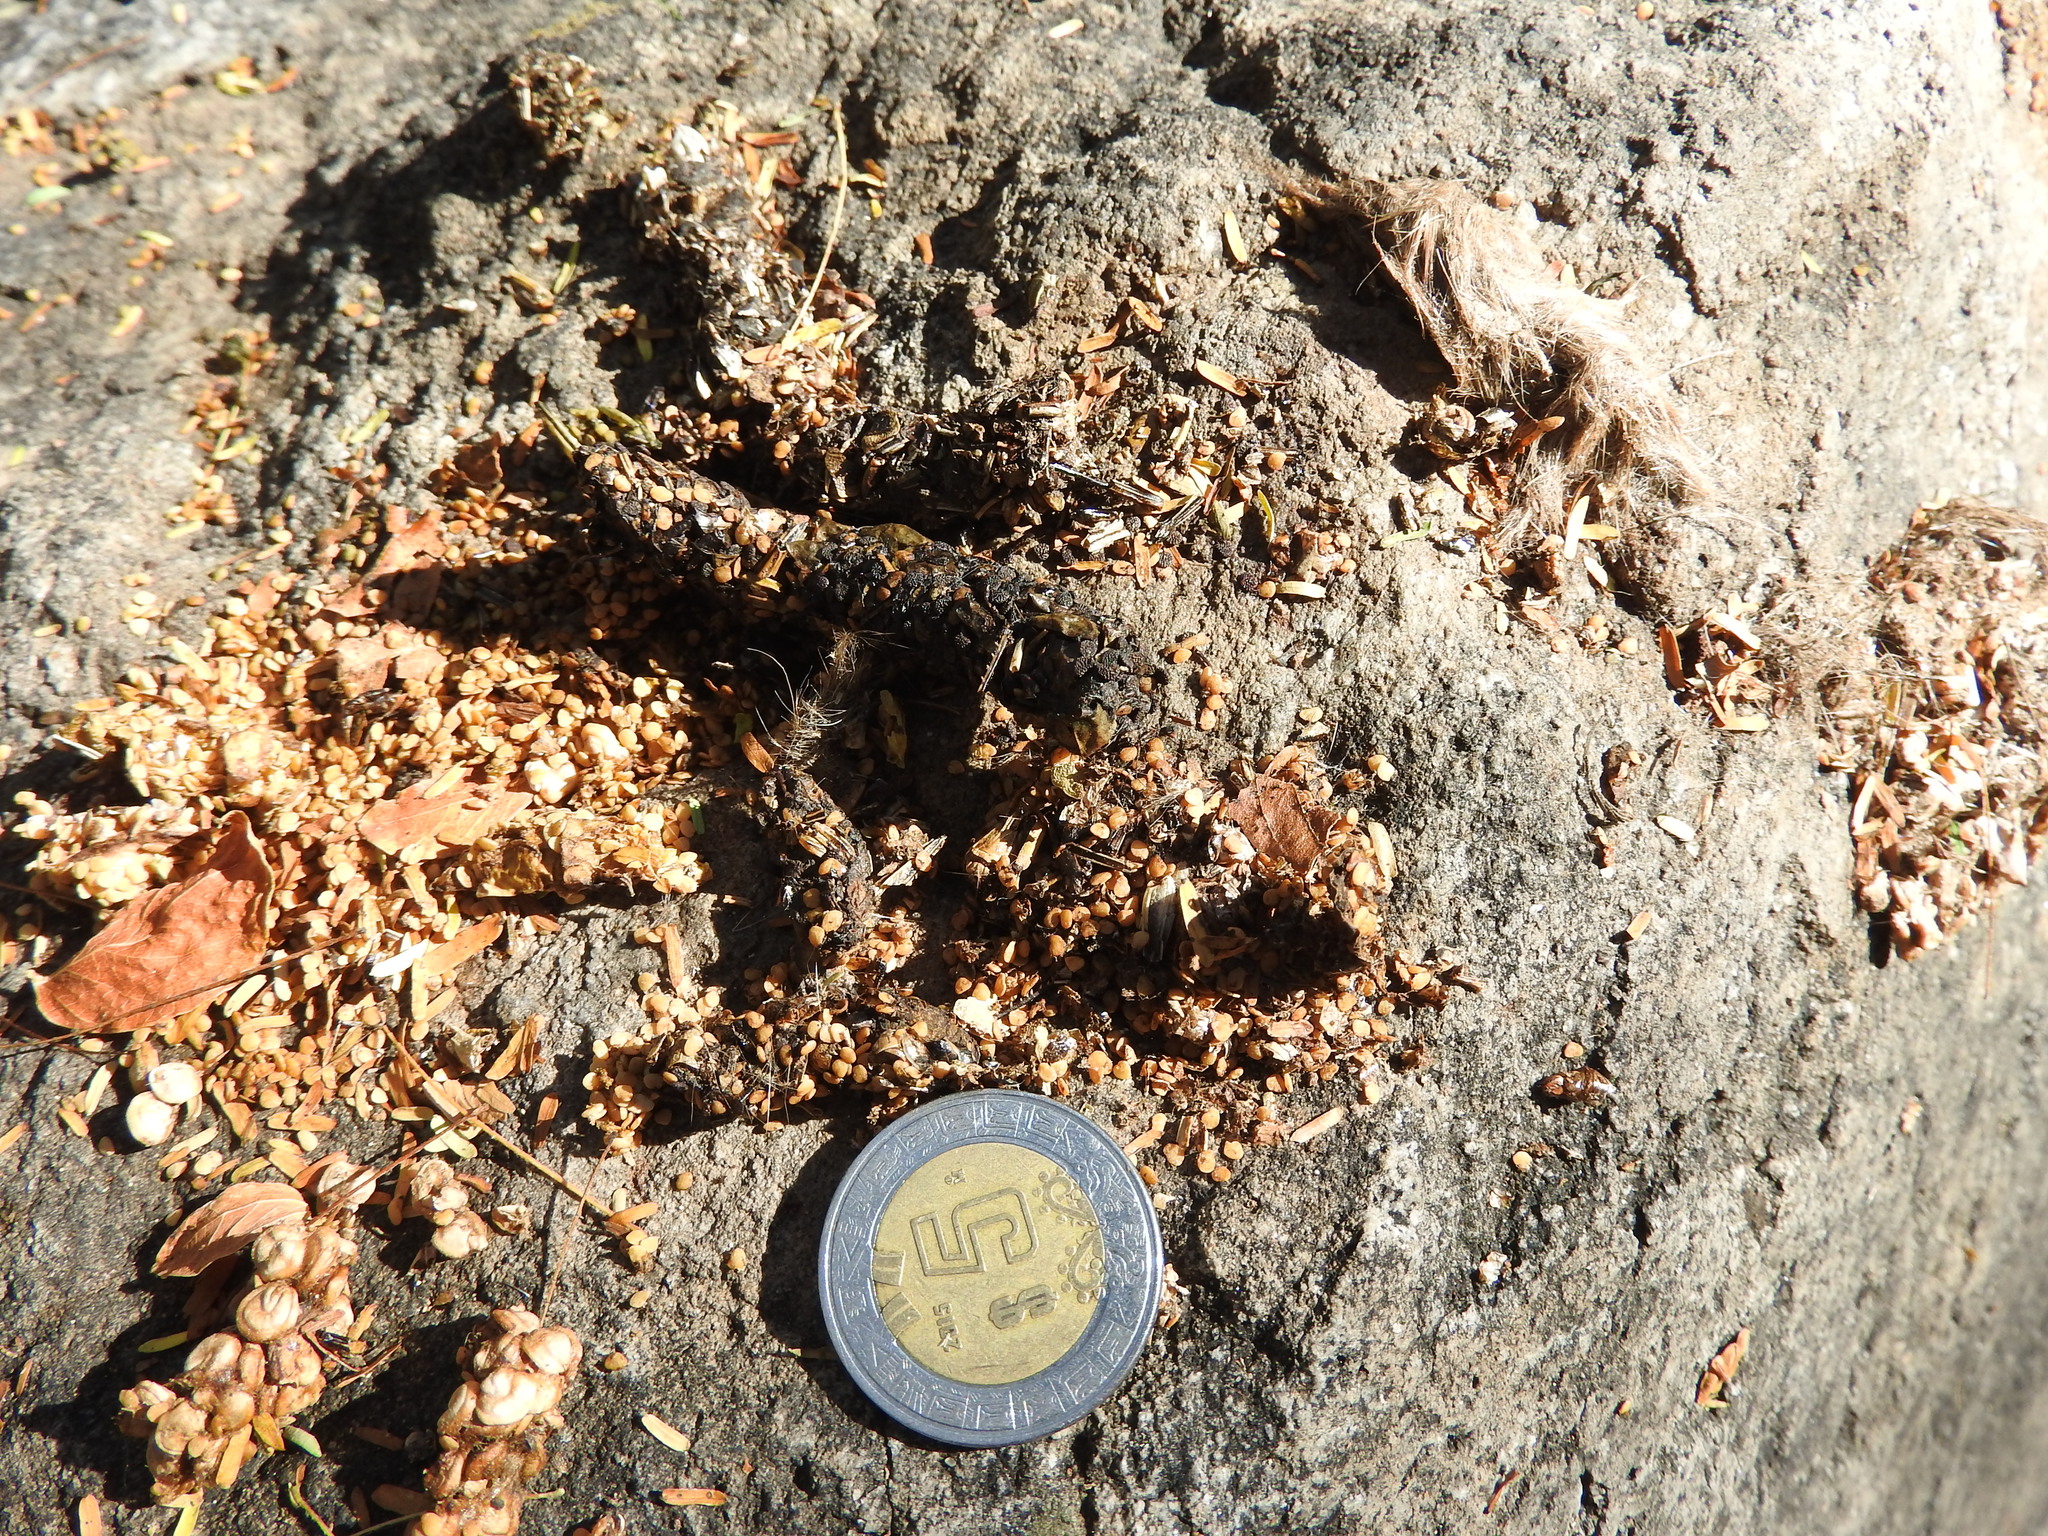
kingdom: Animalia
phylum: Chordata
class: Mammalia
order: Carnivora
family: Procyonidae
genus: Bassariscus
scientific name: Bassariscus astutus
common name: Ringtail
